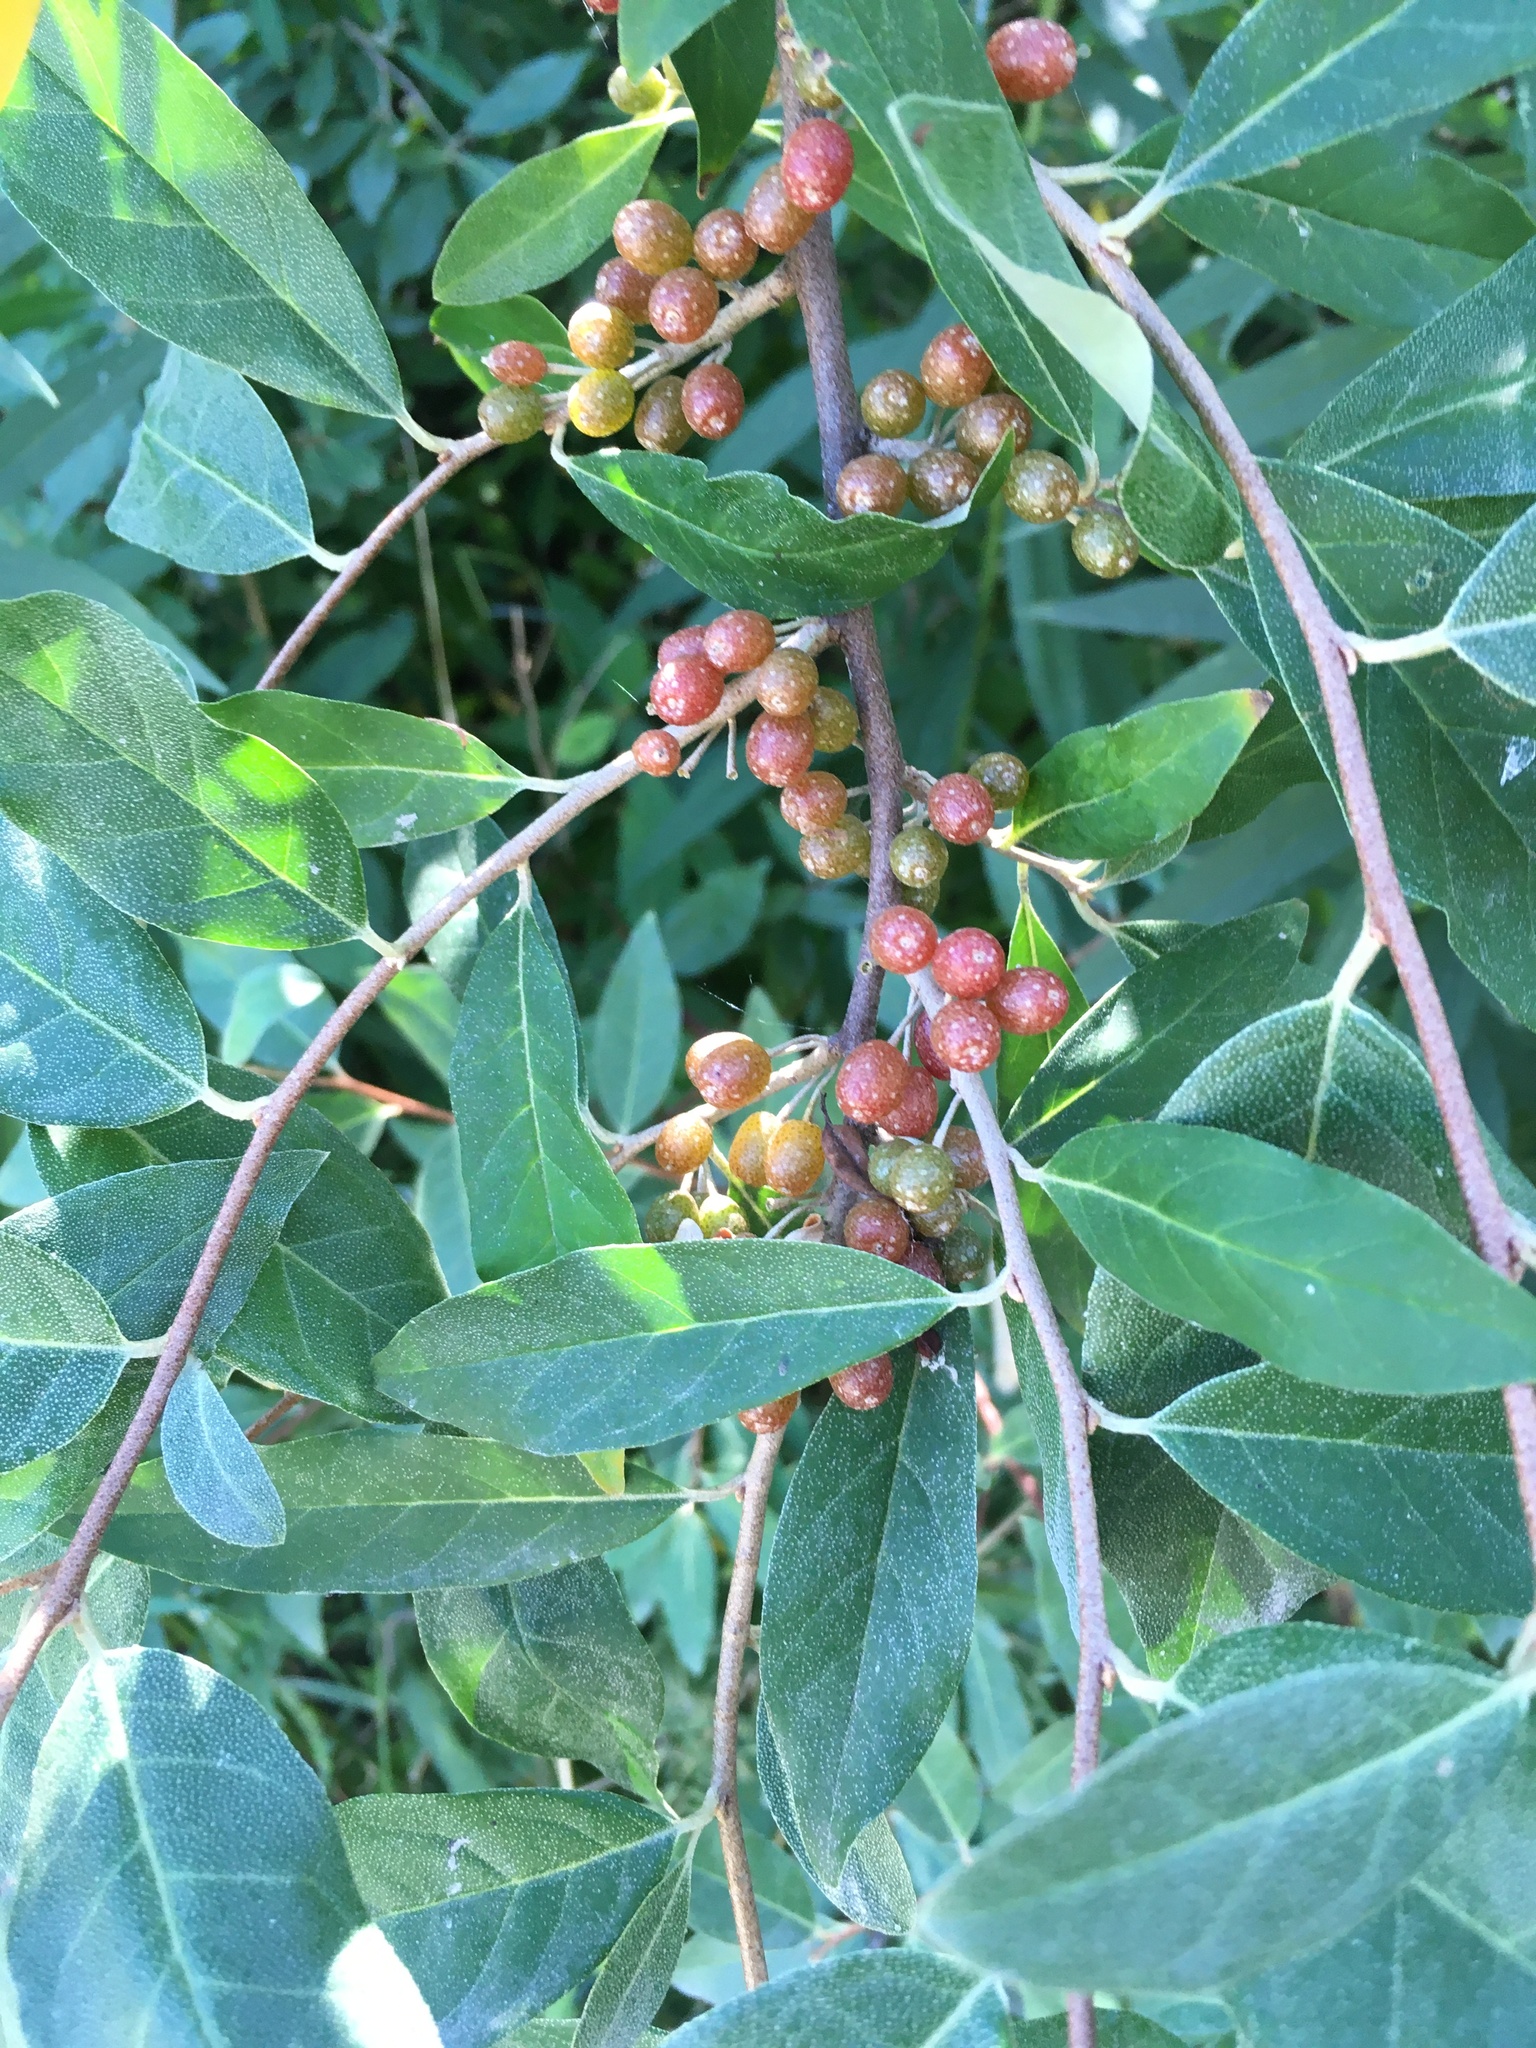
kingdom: Plantae
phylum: Tracheophyta
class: Magnoliopsida
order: Rosales
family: Elaeagnaceae
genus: Elaeagnus
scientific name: Elaeagnus umbellata
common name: Autumn olive
